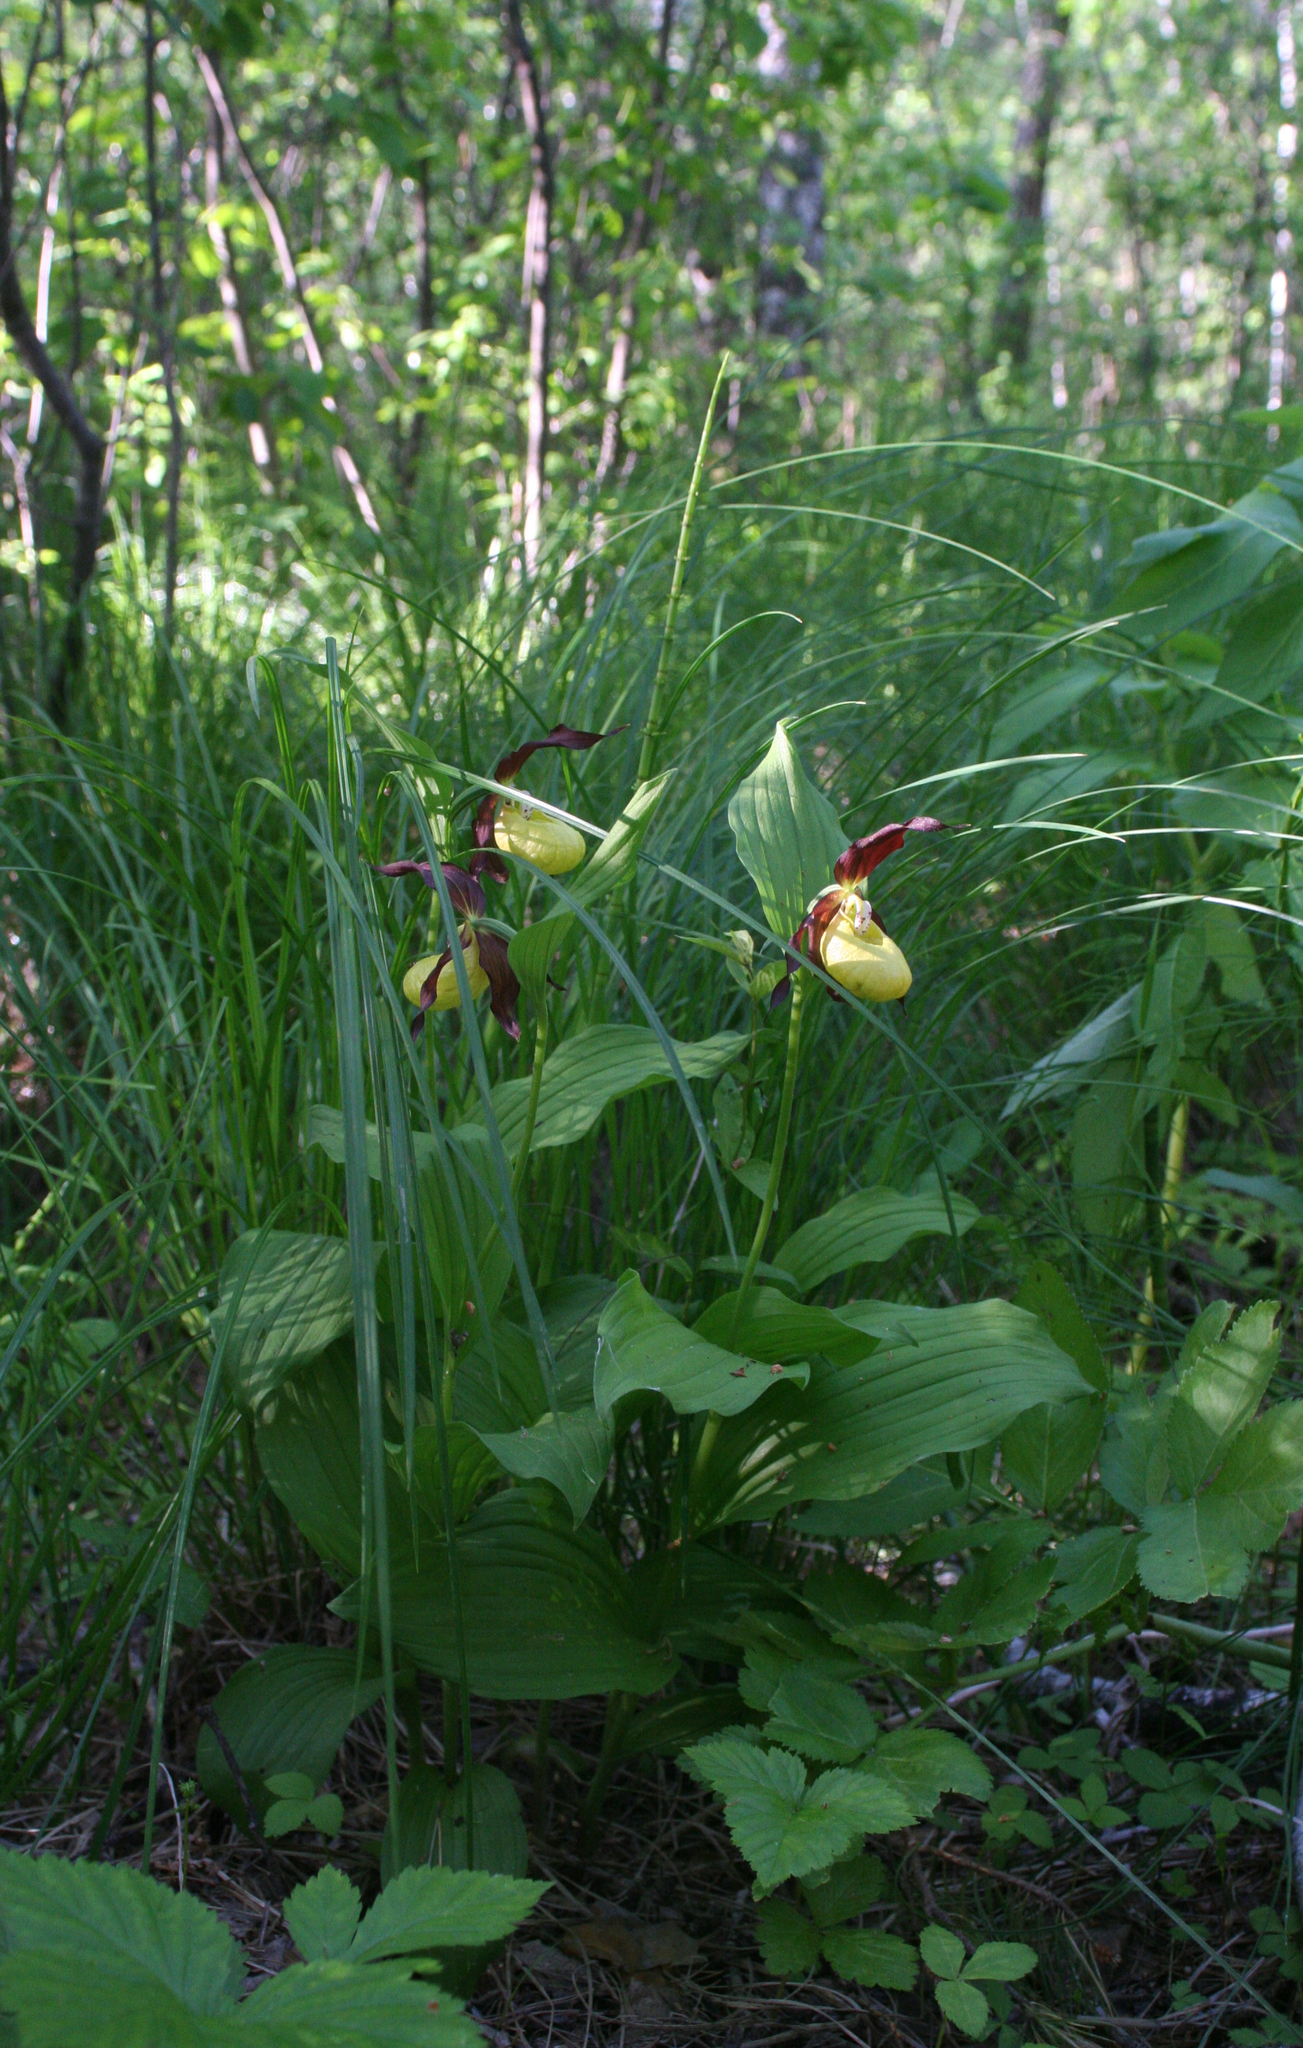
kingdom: Plantae
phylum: Tracheophyta
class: Liliopsida
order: Asparagales
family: Orchidaceae
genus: Cypripedium
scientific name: Cypripedium calceolus
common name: Lady's-slipper
